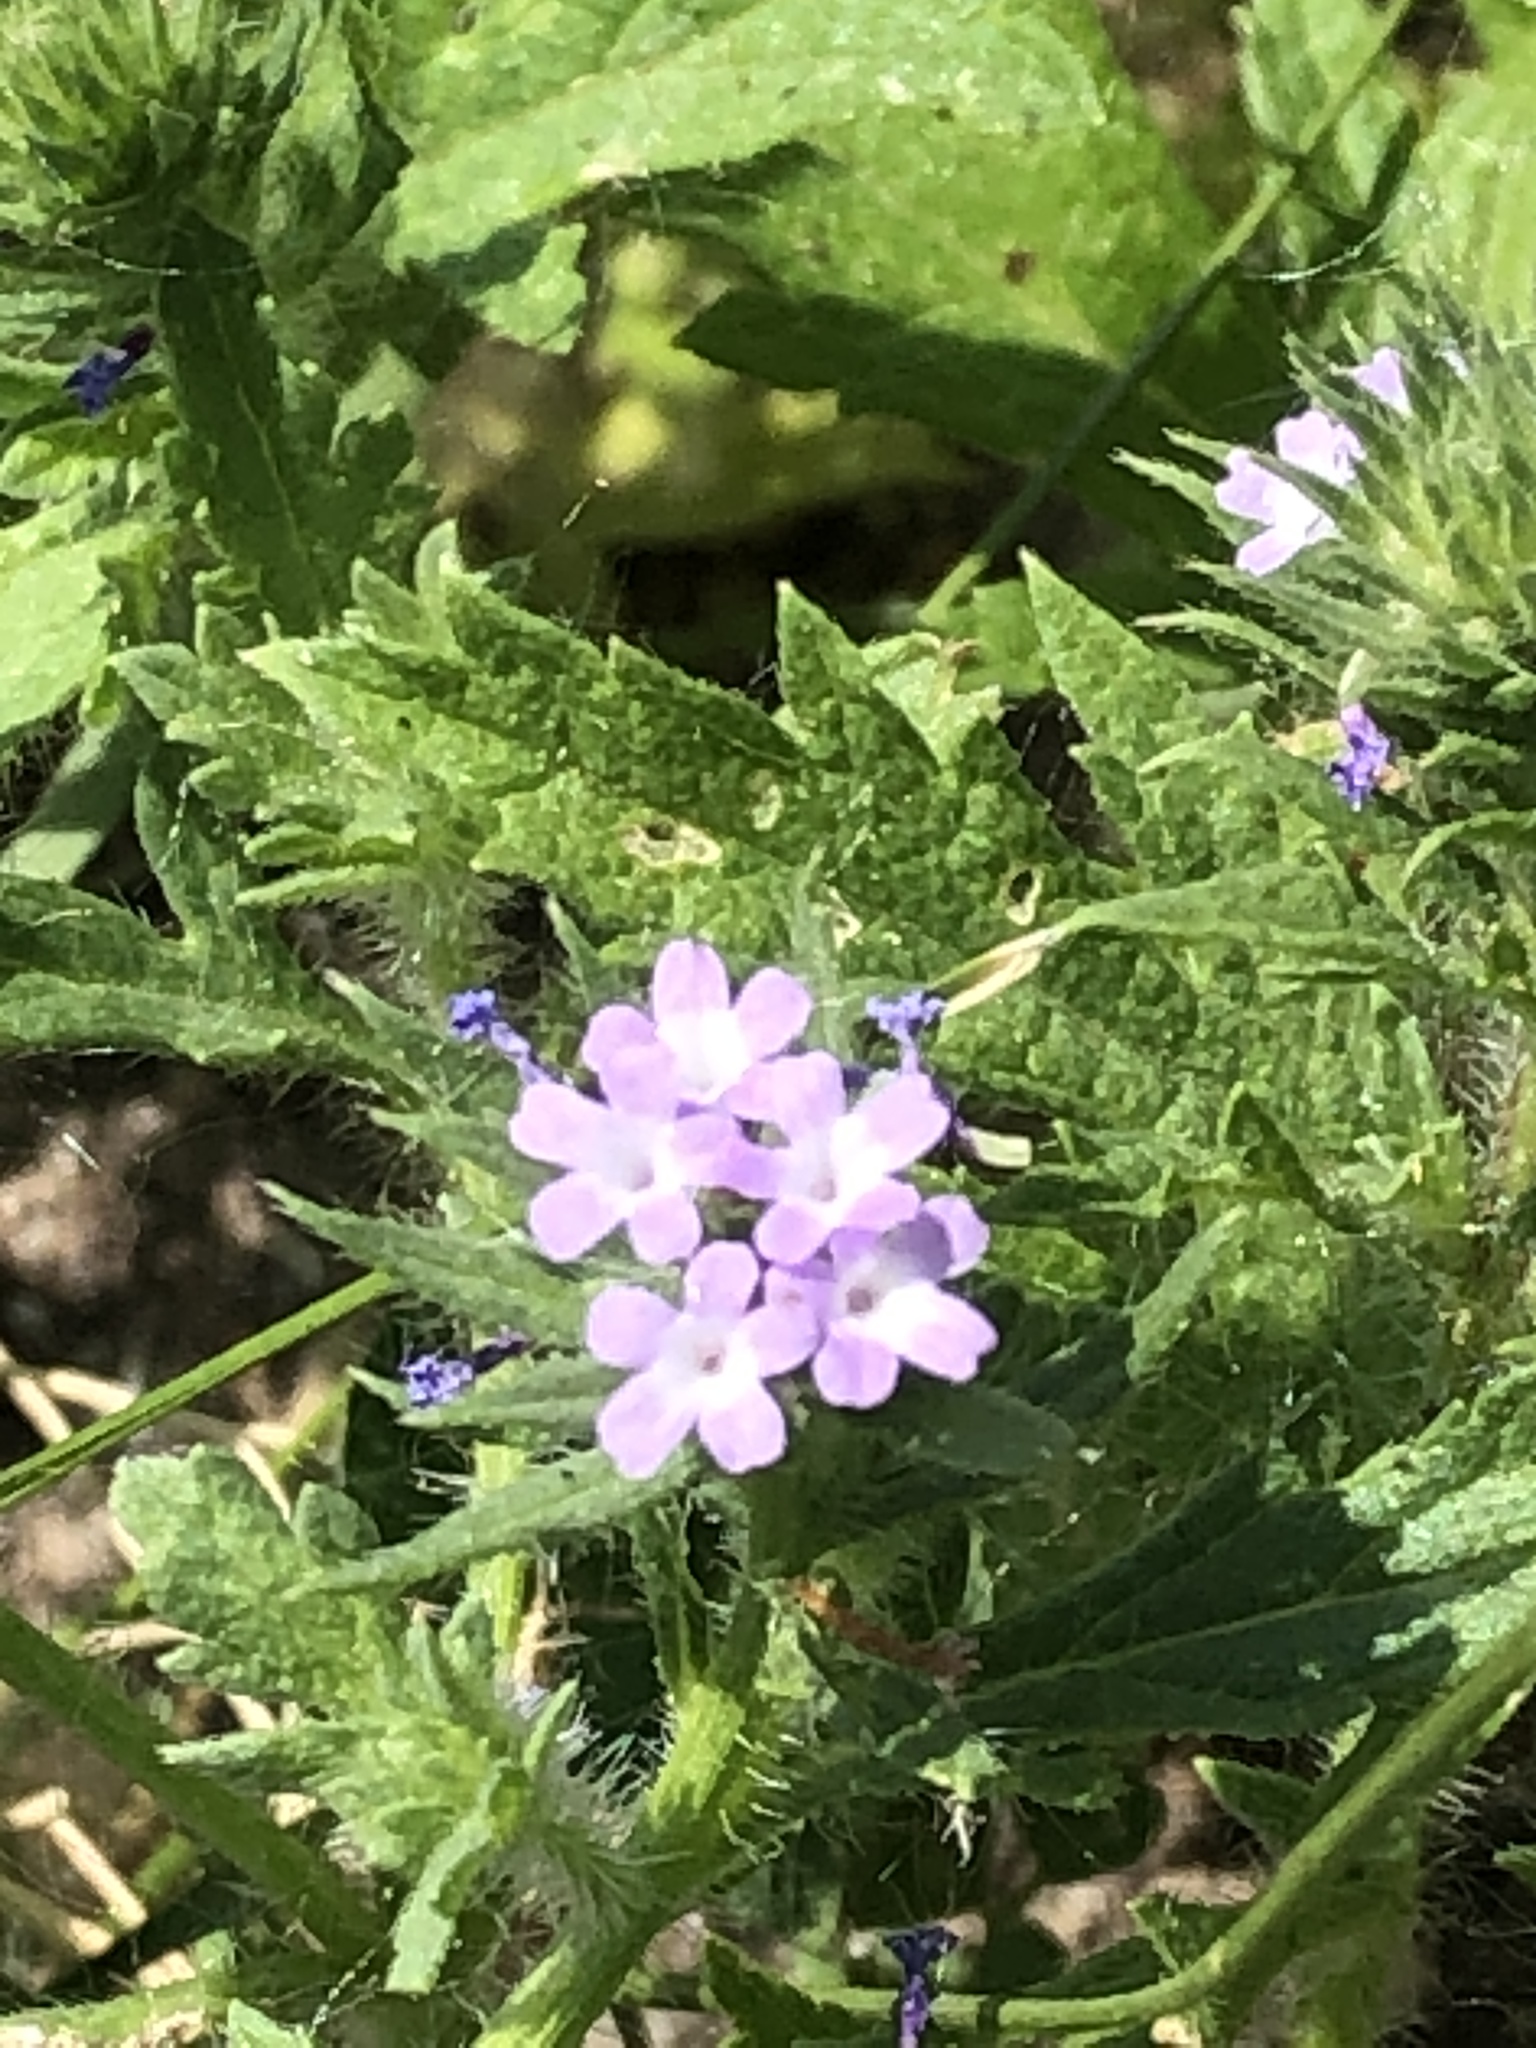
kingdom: Plantae
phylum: Tracheophyta
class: Magnoliopsida
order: Lamiales
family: Verbenaceae
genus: Verbena
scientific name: Verbena bracteata
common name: Bracted vervain
